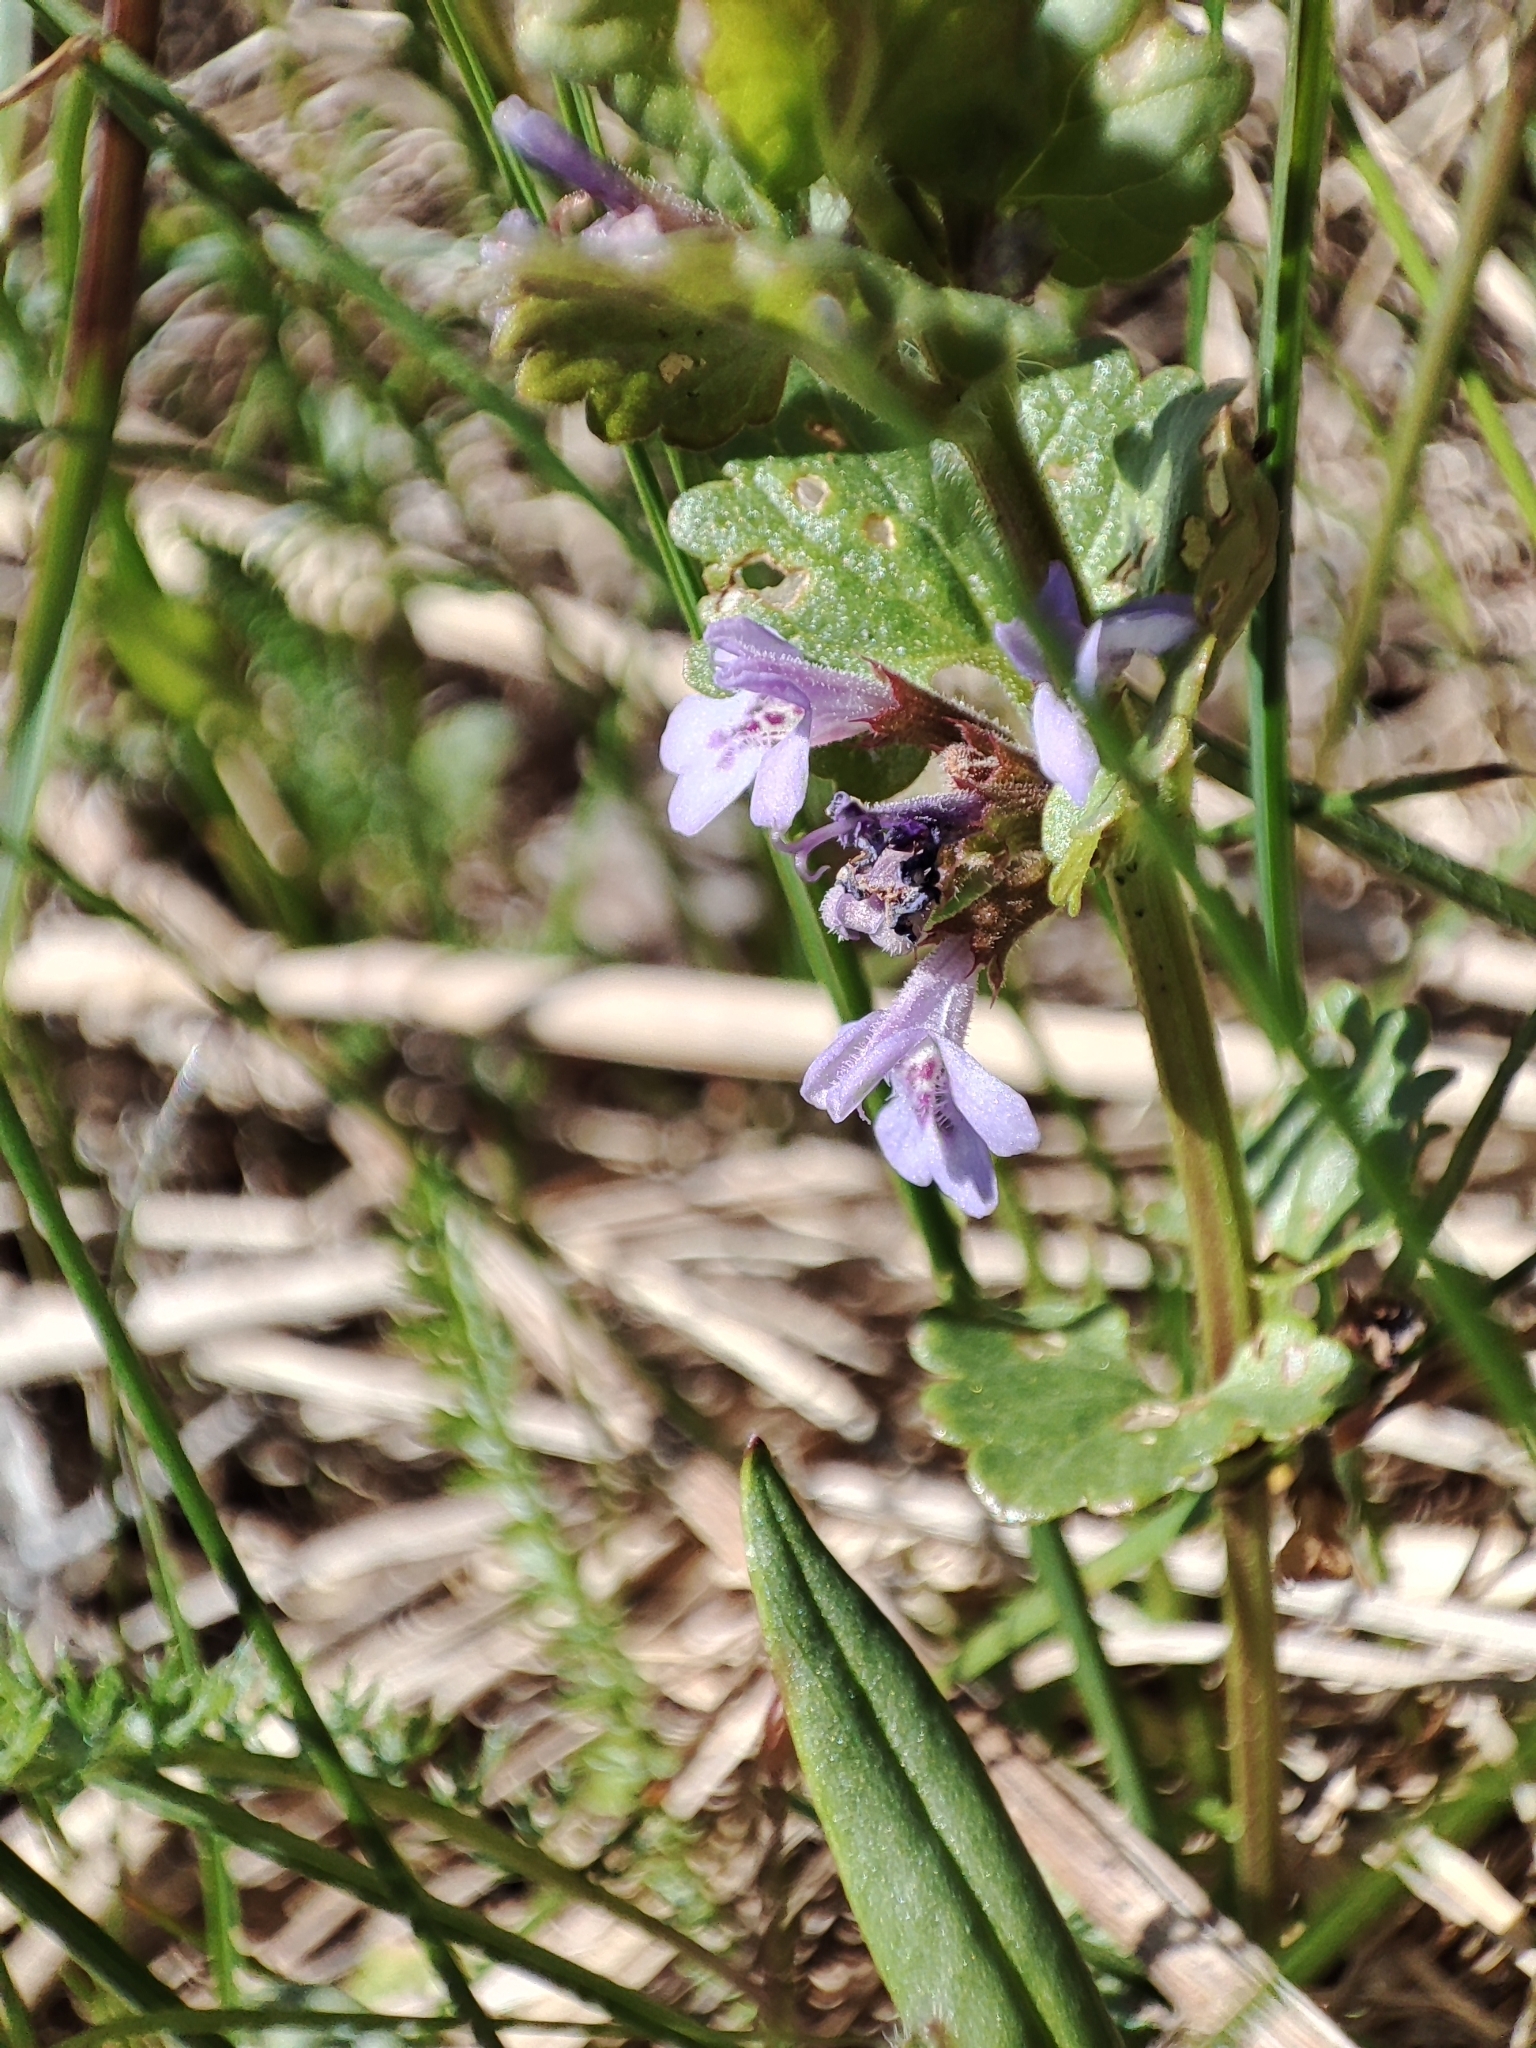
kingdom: Plantae
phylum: Tracheophyta
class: Magnoliopsida
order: Lamiales
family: Lamiaceae
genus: Glechoma
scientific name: Glechoma hederacea
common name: Ground ivy
